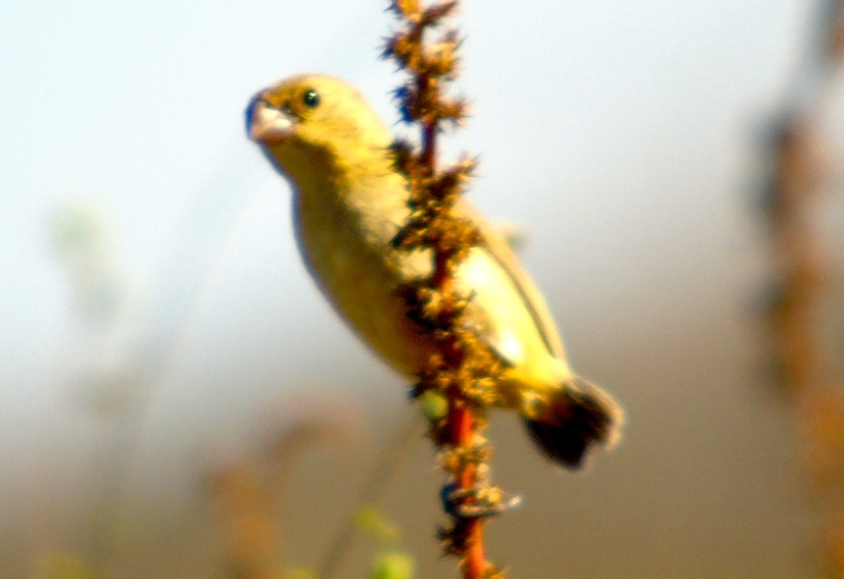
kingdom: Animalia
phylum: Chordata
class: Aves
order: Passeriformes
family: Thraupidae
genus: Sporophila
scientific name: Sporophila torqueola
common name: White-collared seedeater
